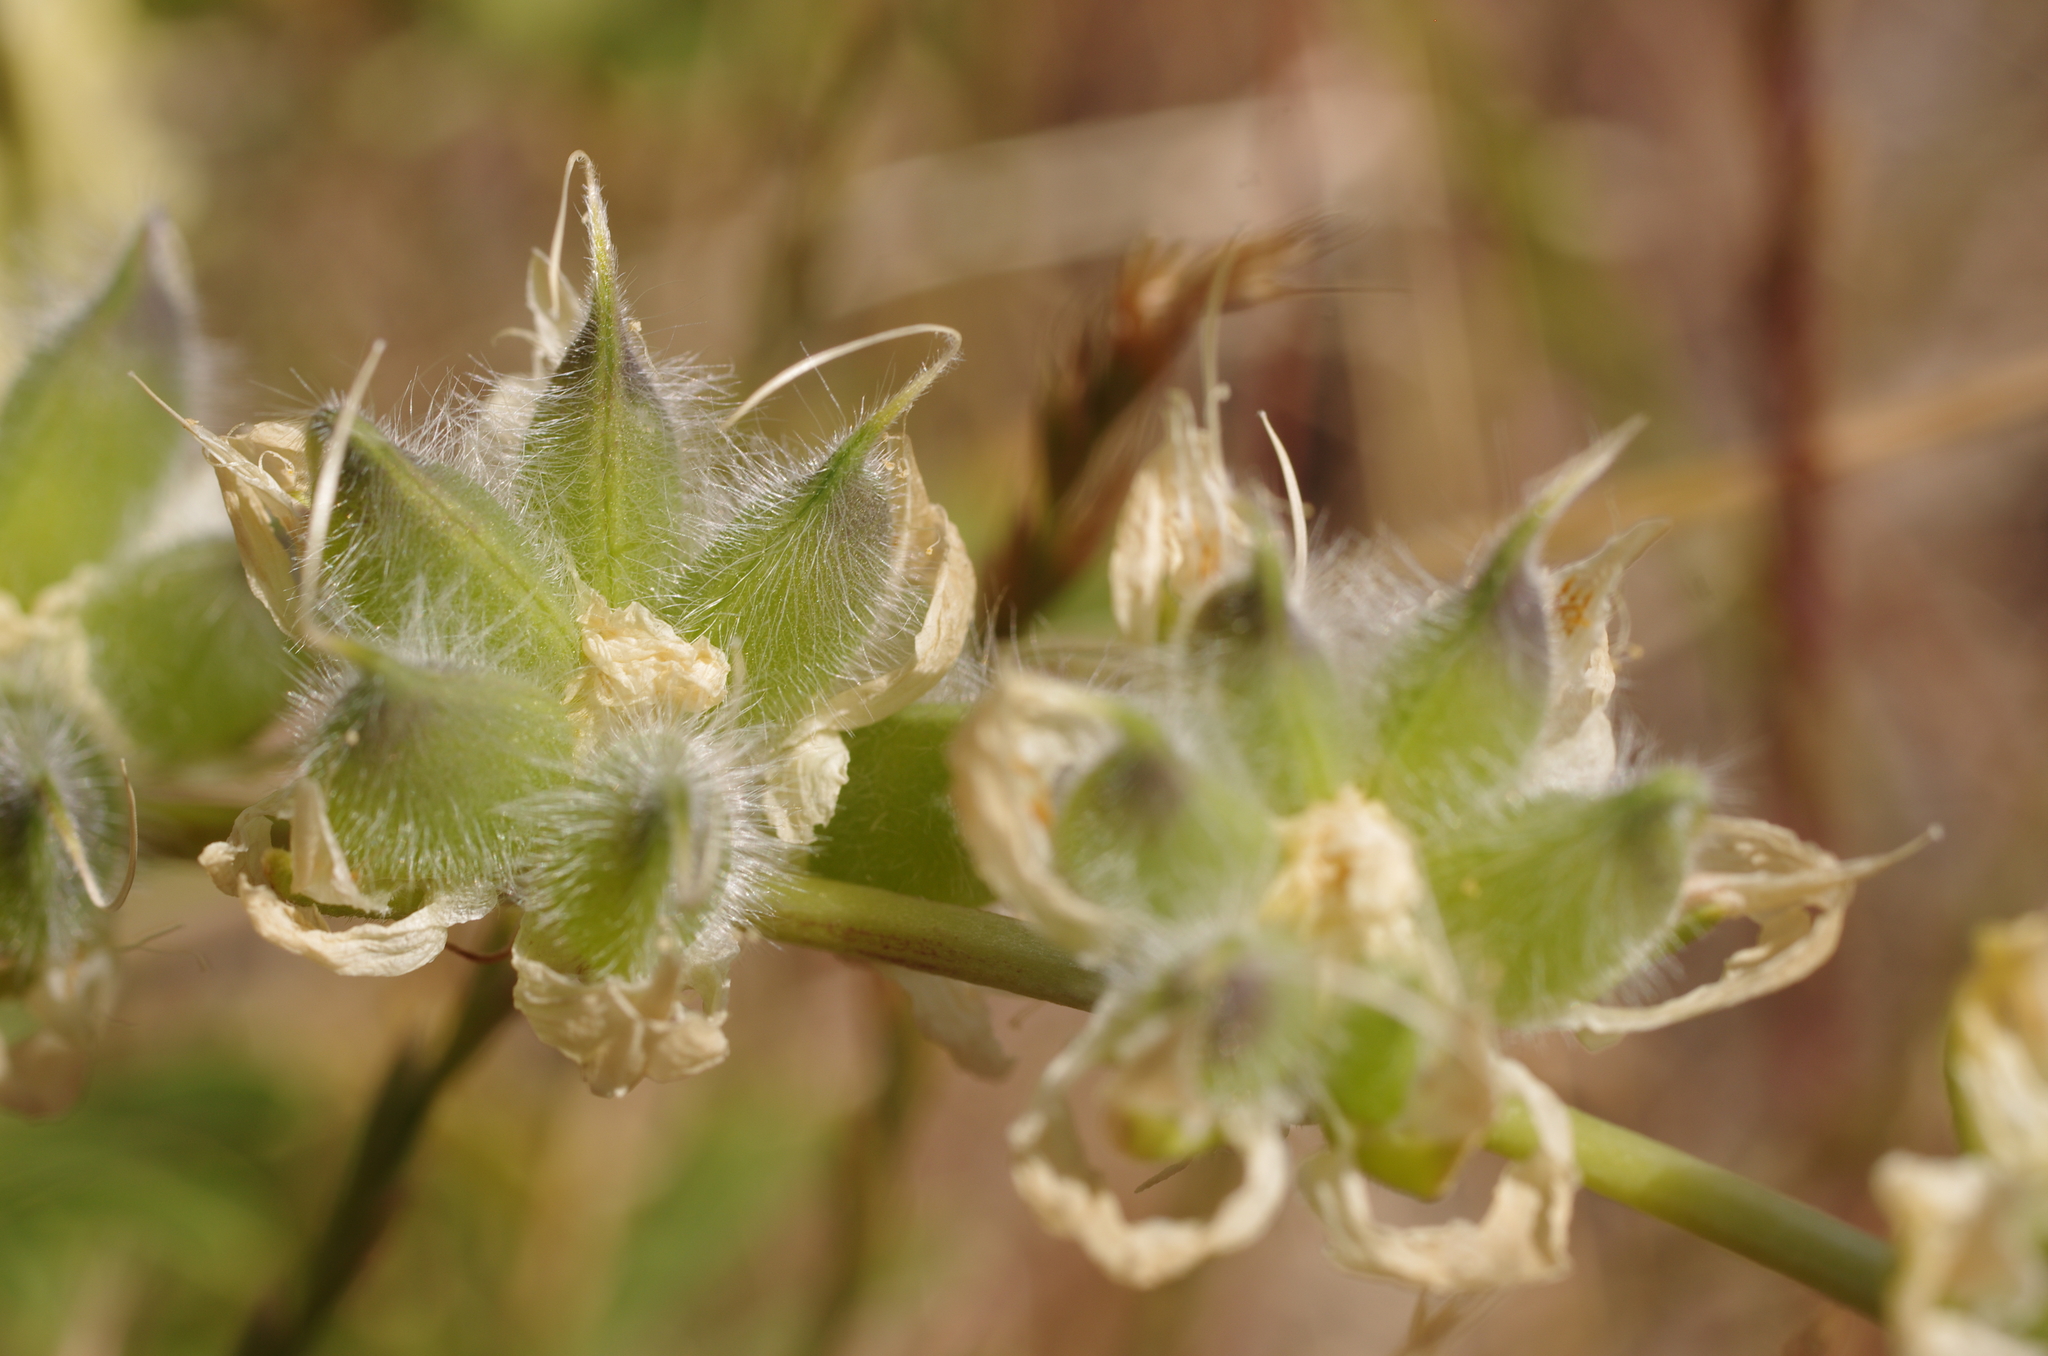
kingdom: Plantae
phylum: Tracheophyta
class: Magnoliopsida
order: Fabales
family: Fabaceae
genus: Lupinus
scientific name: Lupinus microcarpus
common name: Chick lupine
